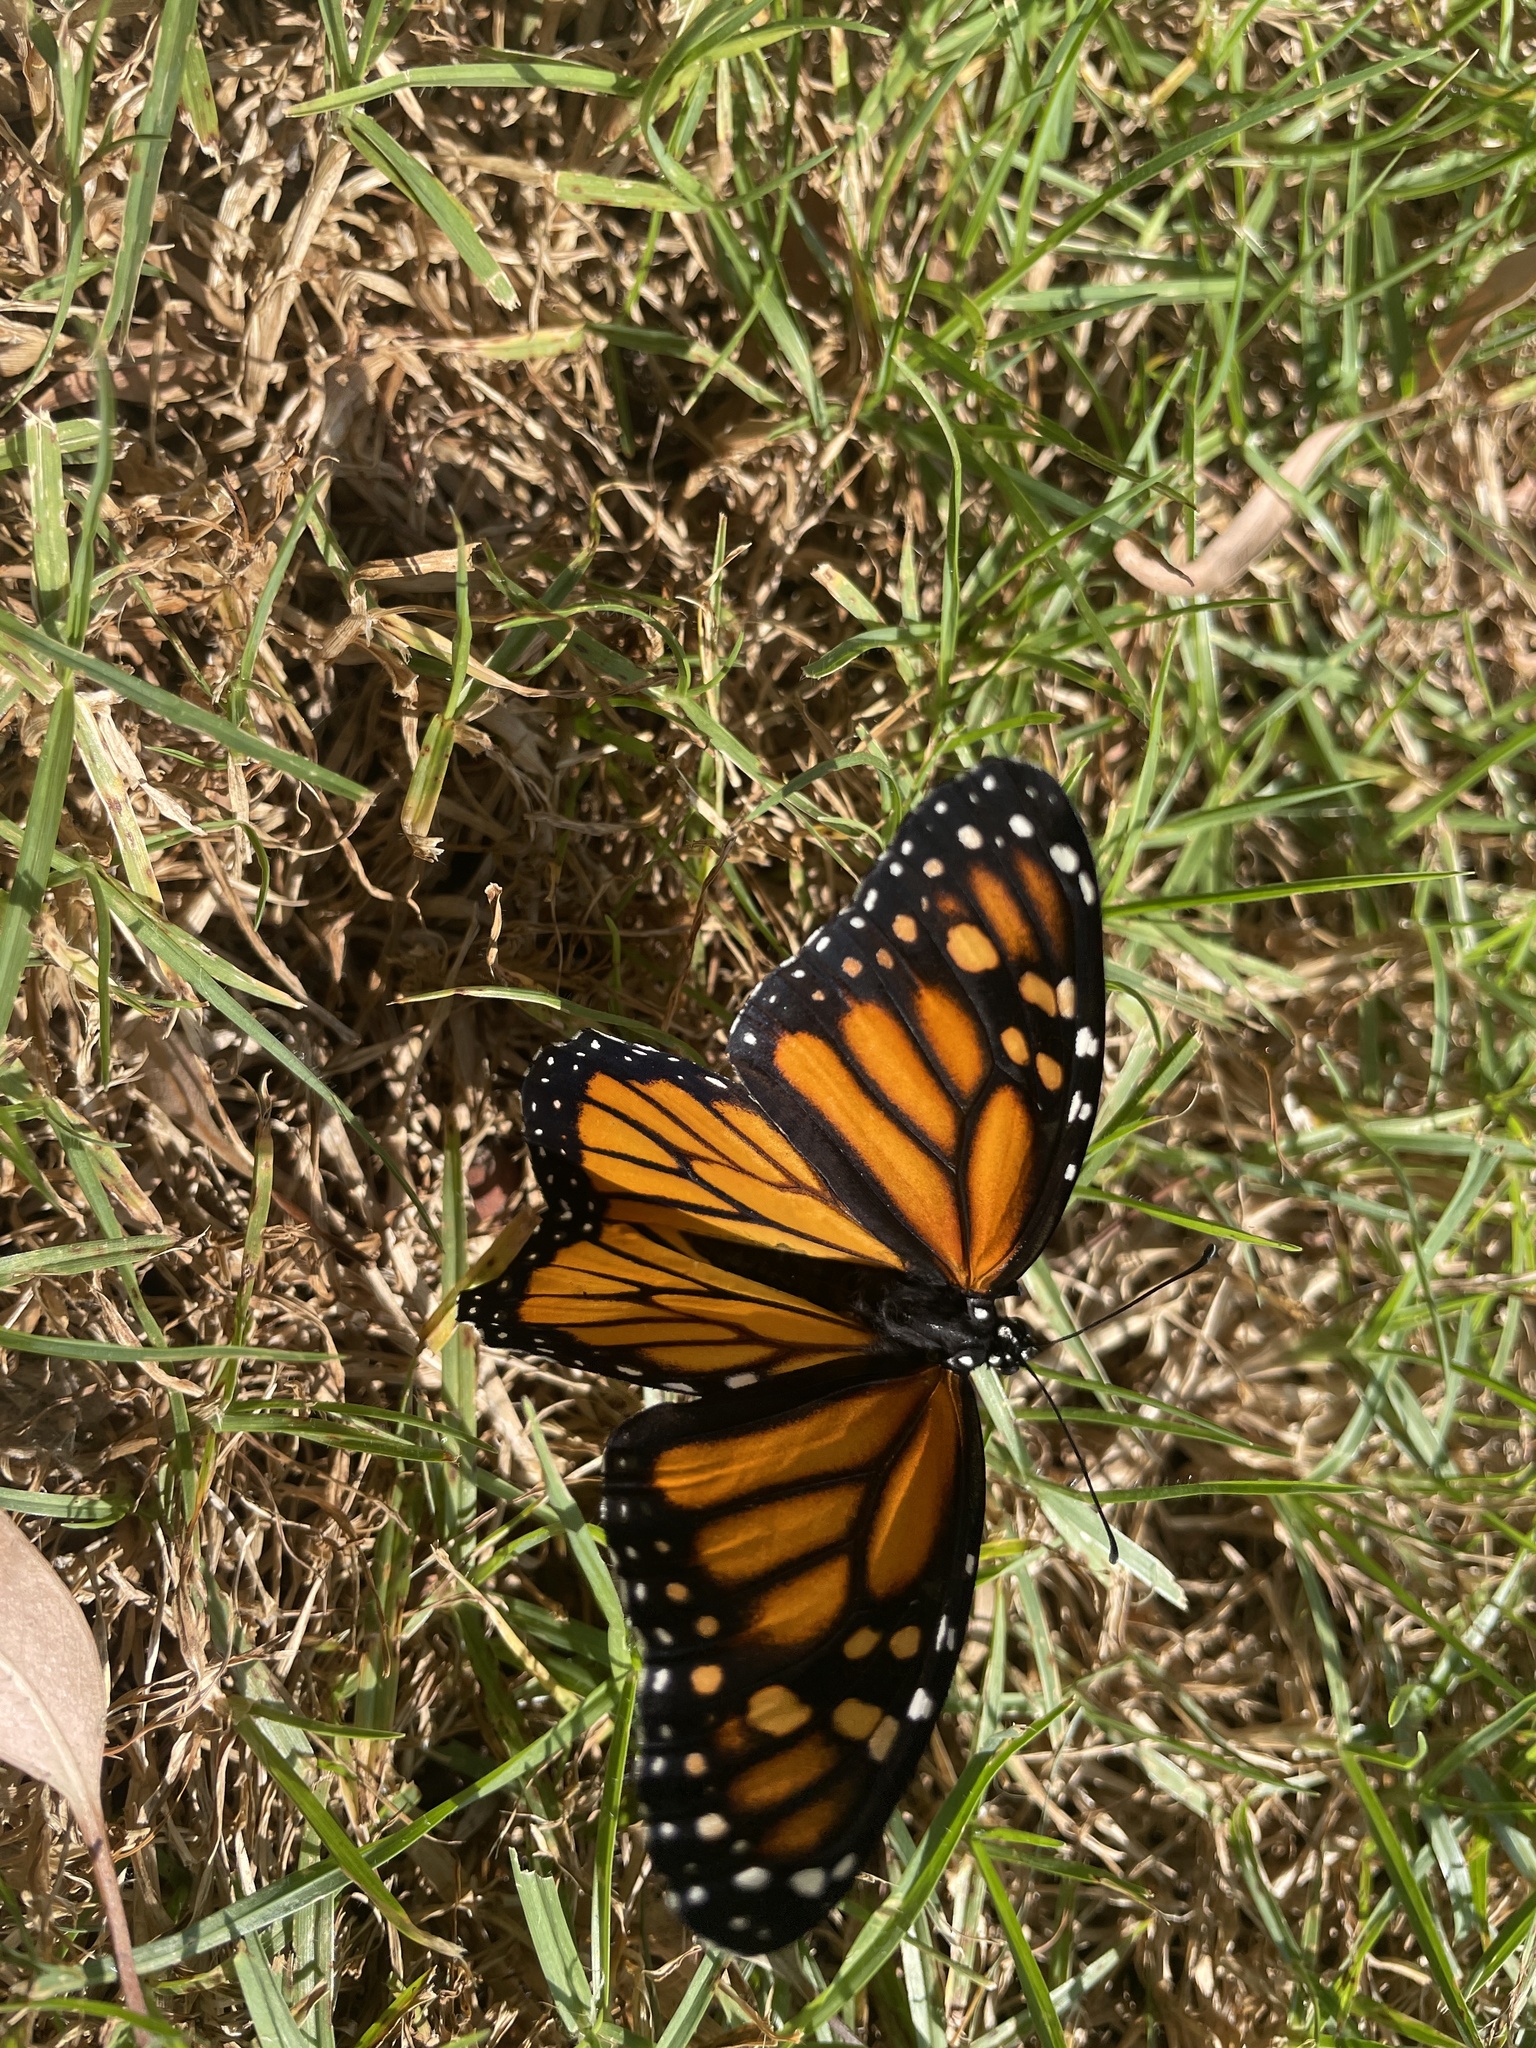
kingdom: Animalia
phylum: Arthropoda
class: Insecta
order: Lepidoptera
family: Nymphalidae
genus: Danaus
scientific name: Danaus plexippus
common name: Monarch
